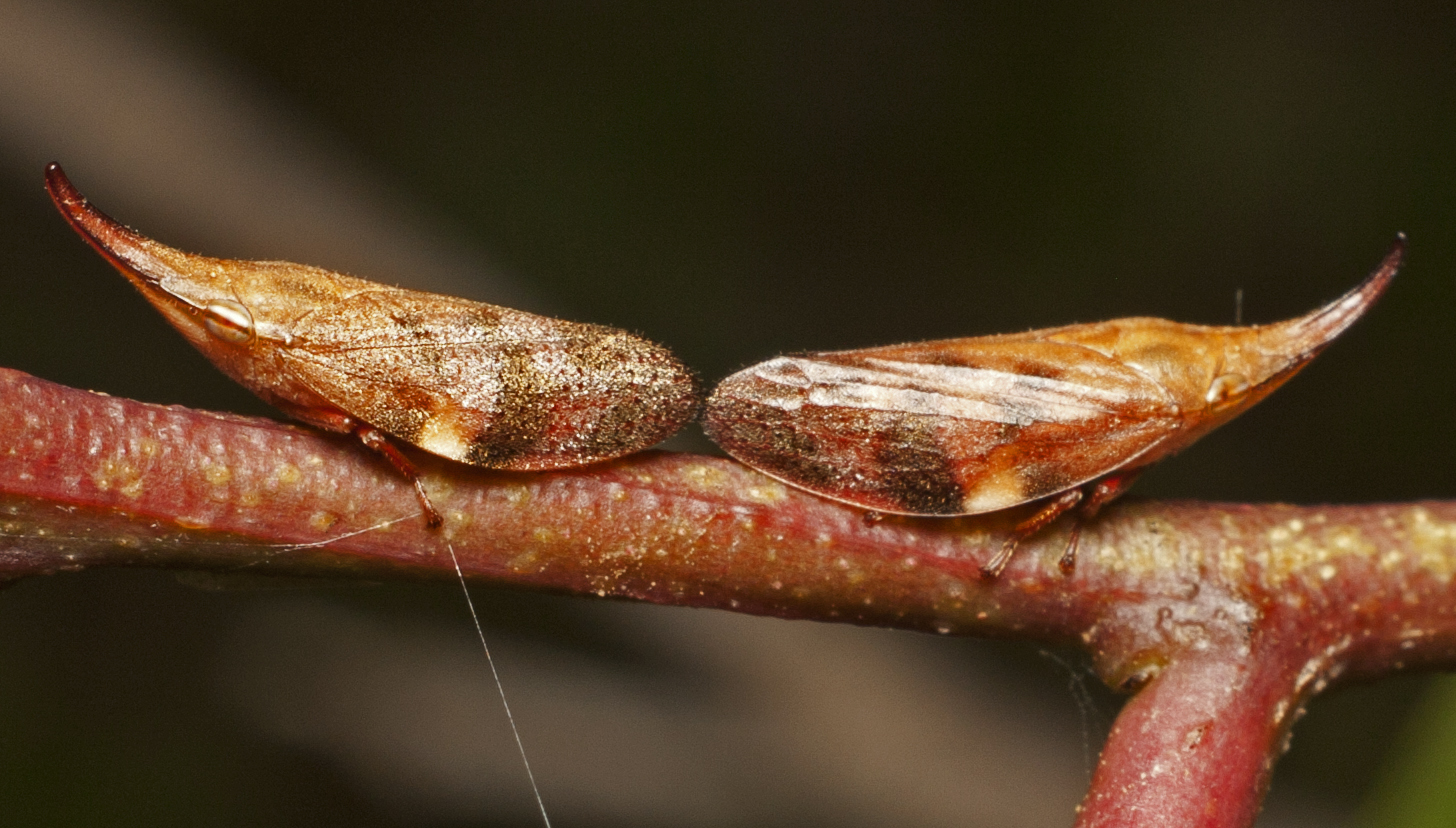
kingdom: Animalia
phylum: Arthropoda
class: Insecta
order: Hemiptera
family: Aphrophoridae
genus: Philagra
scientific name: Philagra parva
